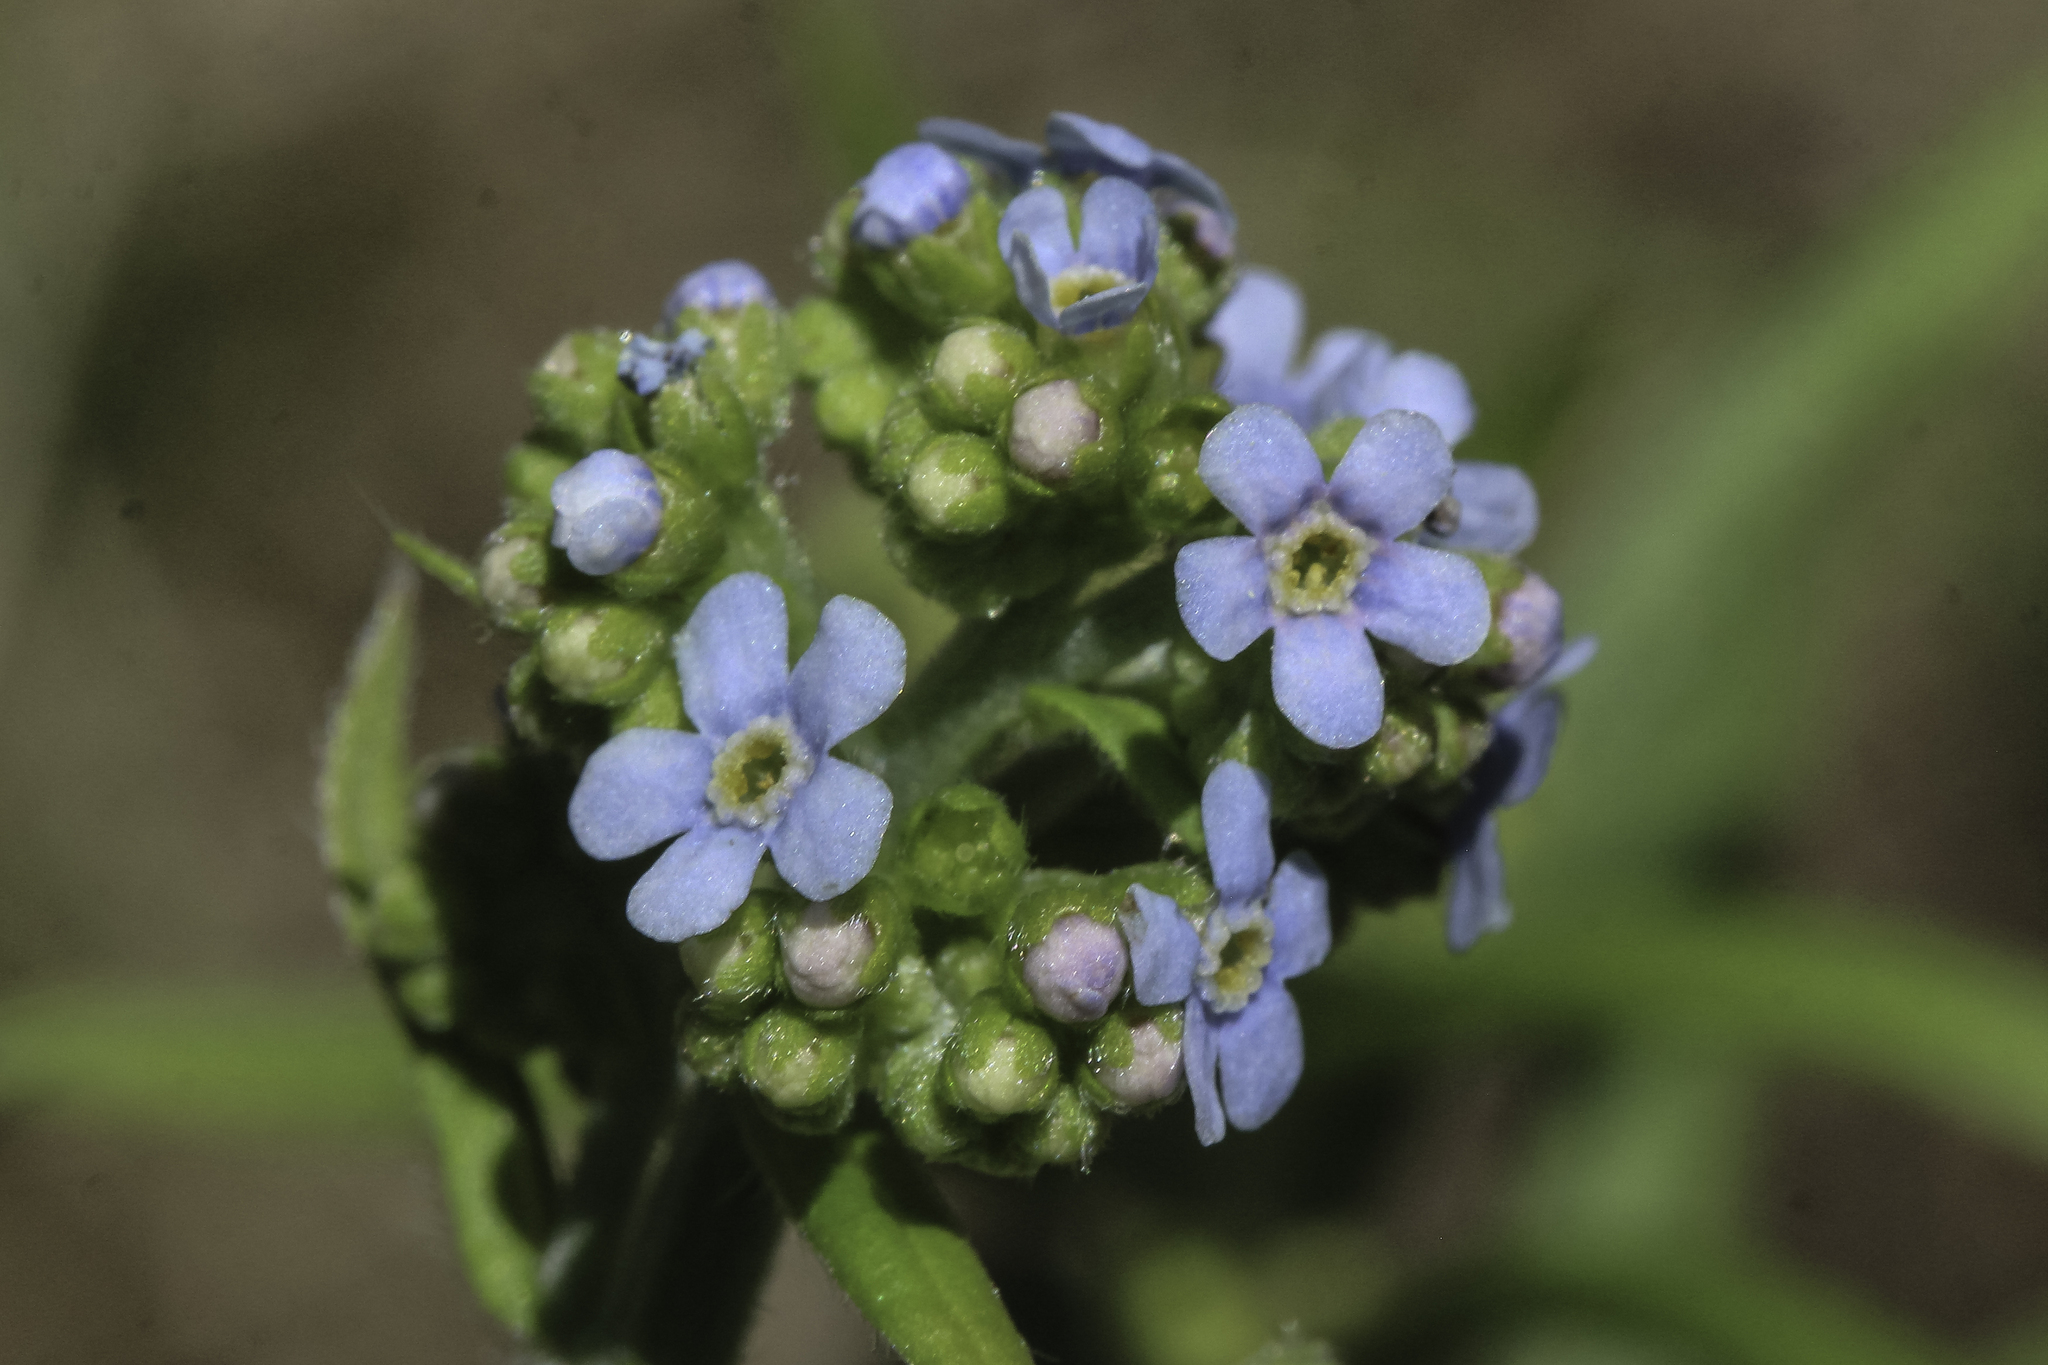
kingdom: Plantae
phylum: Tracheophyta
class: Magnoliopsida
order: Boraginales
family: Boraginaceae
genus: Hackelia
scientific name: Hackelia floribunda
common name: Large-flowered stickseed
